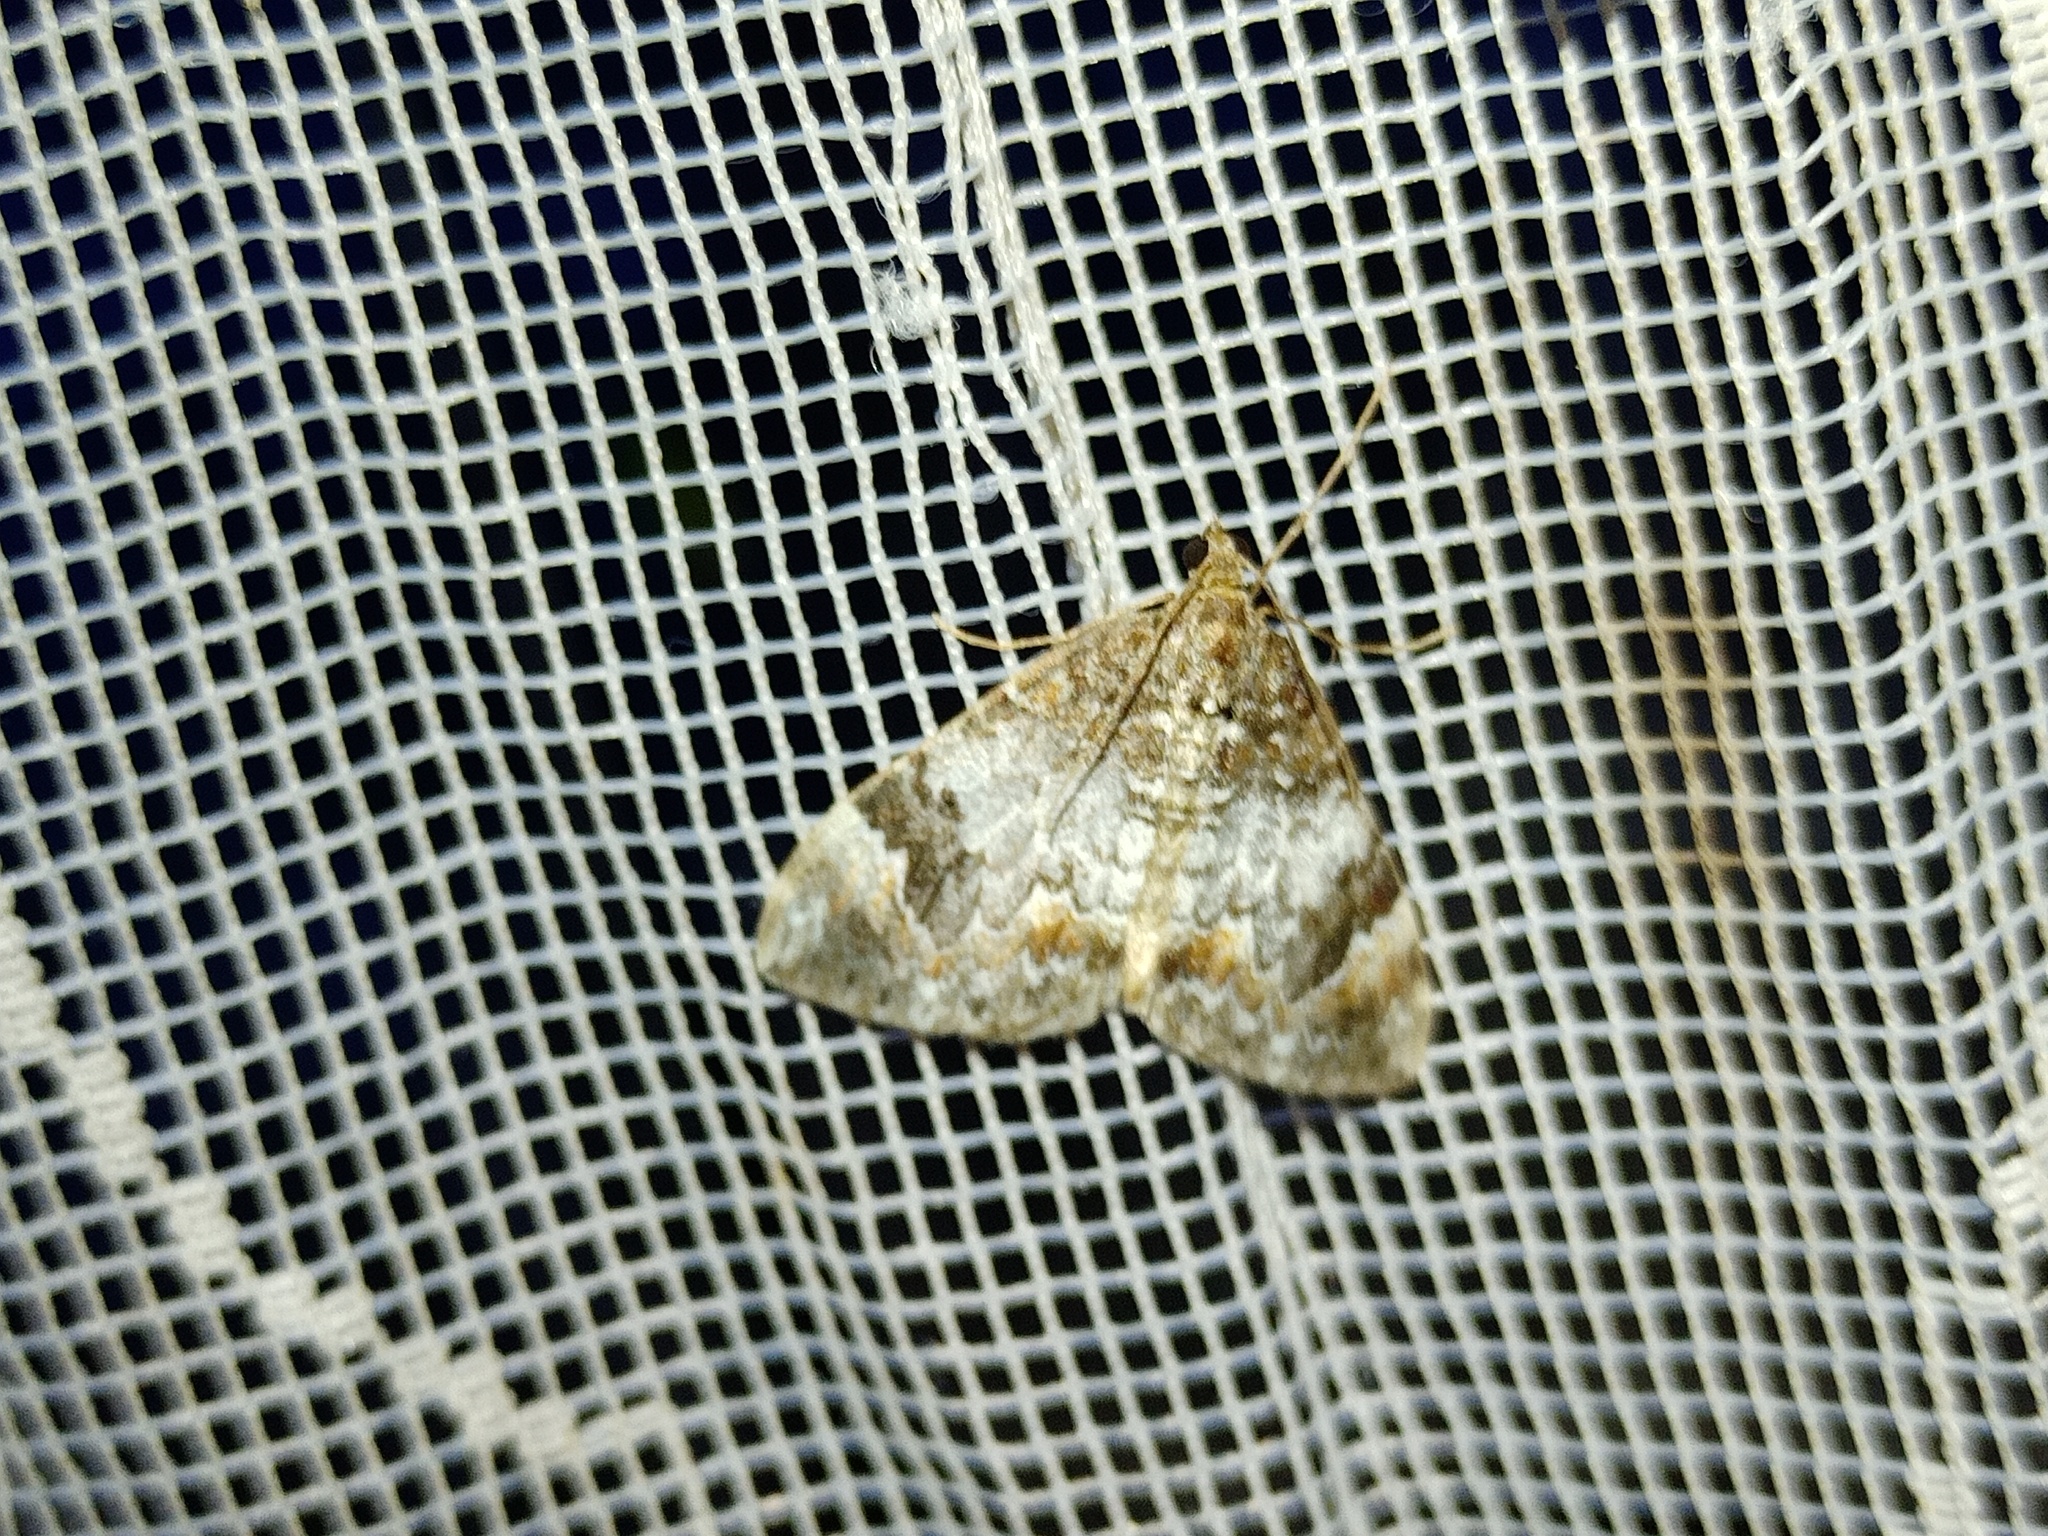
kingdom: Animalia
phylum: Arthropoda
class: Insecta
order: Lepidoptera
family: Geometridae
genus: Dysstroma
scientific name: Dysstroma truncata
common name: Common marbled carpet
